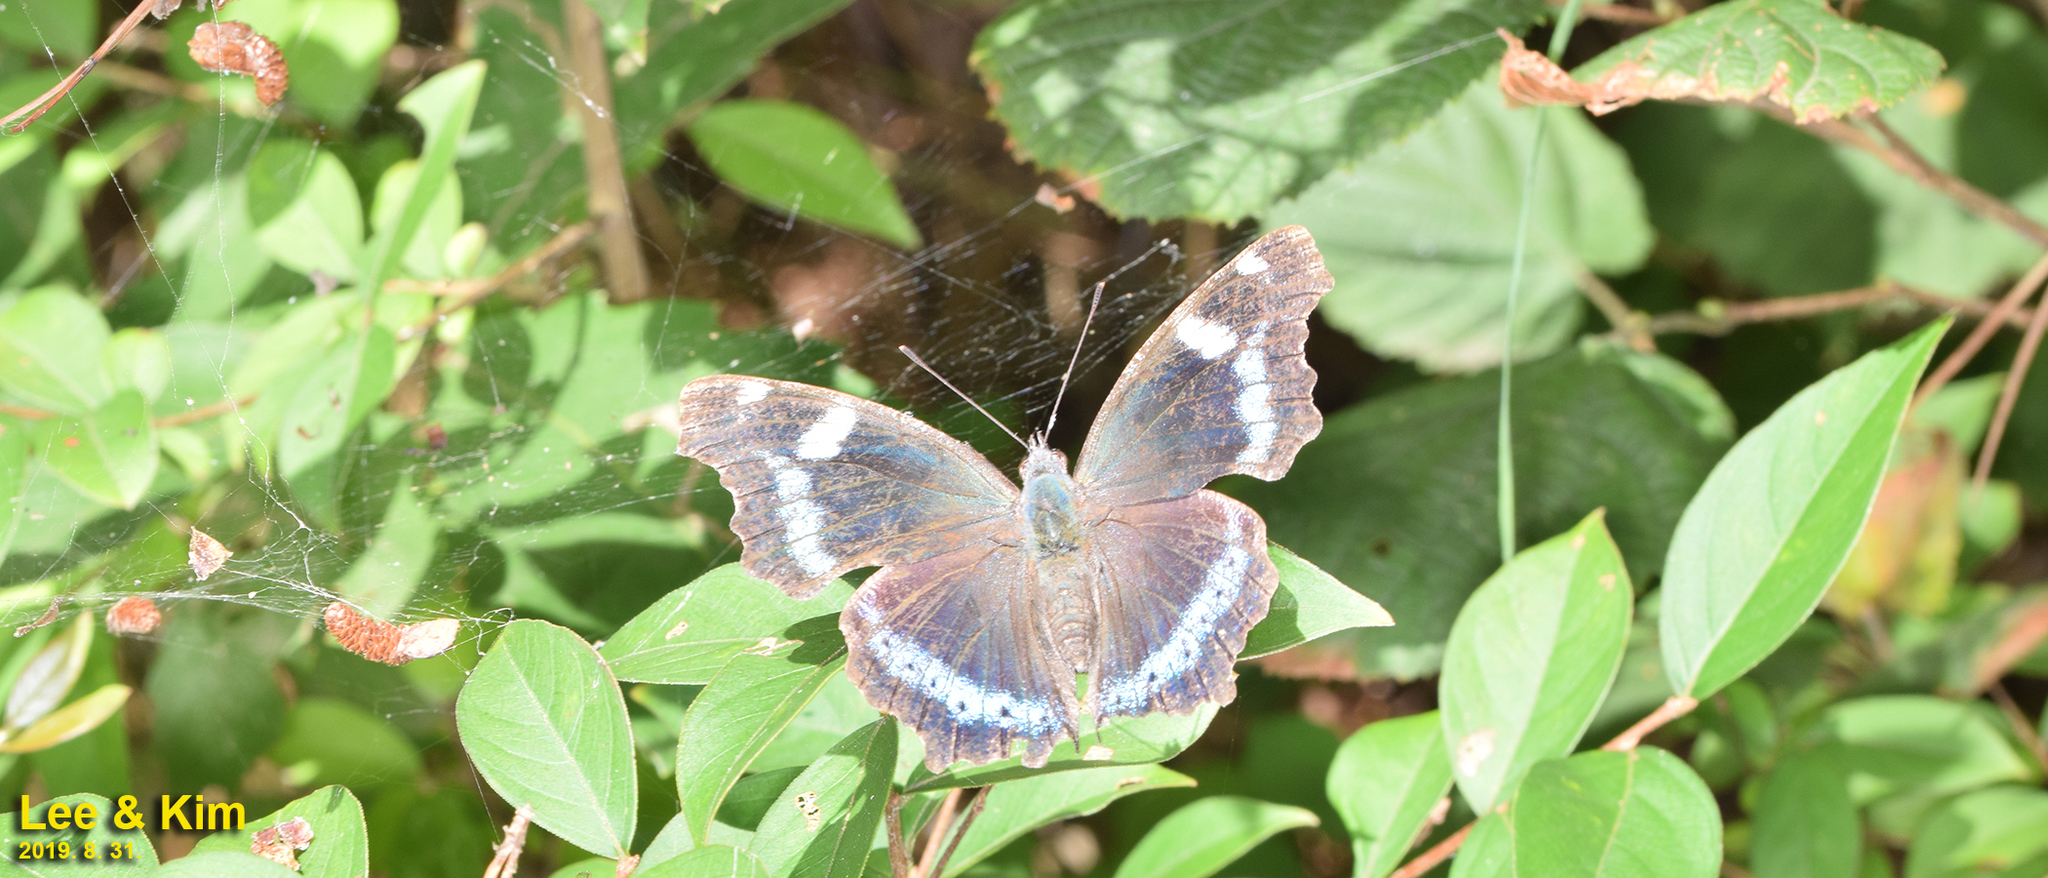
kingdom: Animalia
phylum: Arthropoda
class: Insecta
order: Lepidoptera
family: Nymphalidae
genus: Vanessa
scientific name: Vanessa Kaniska canace
